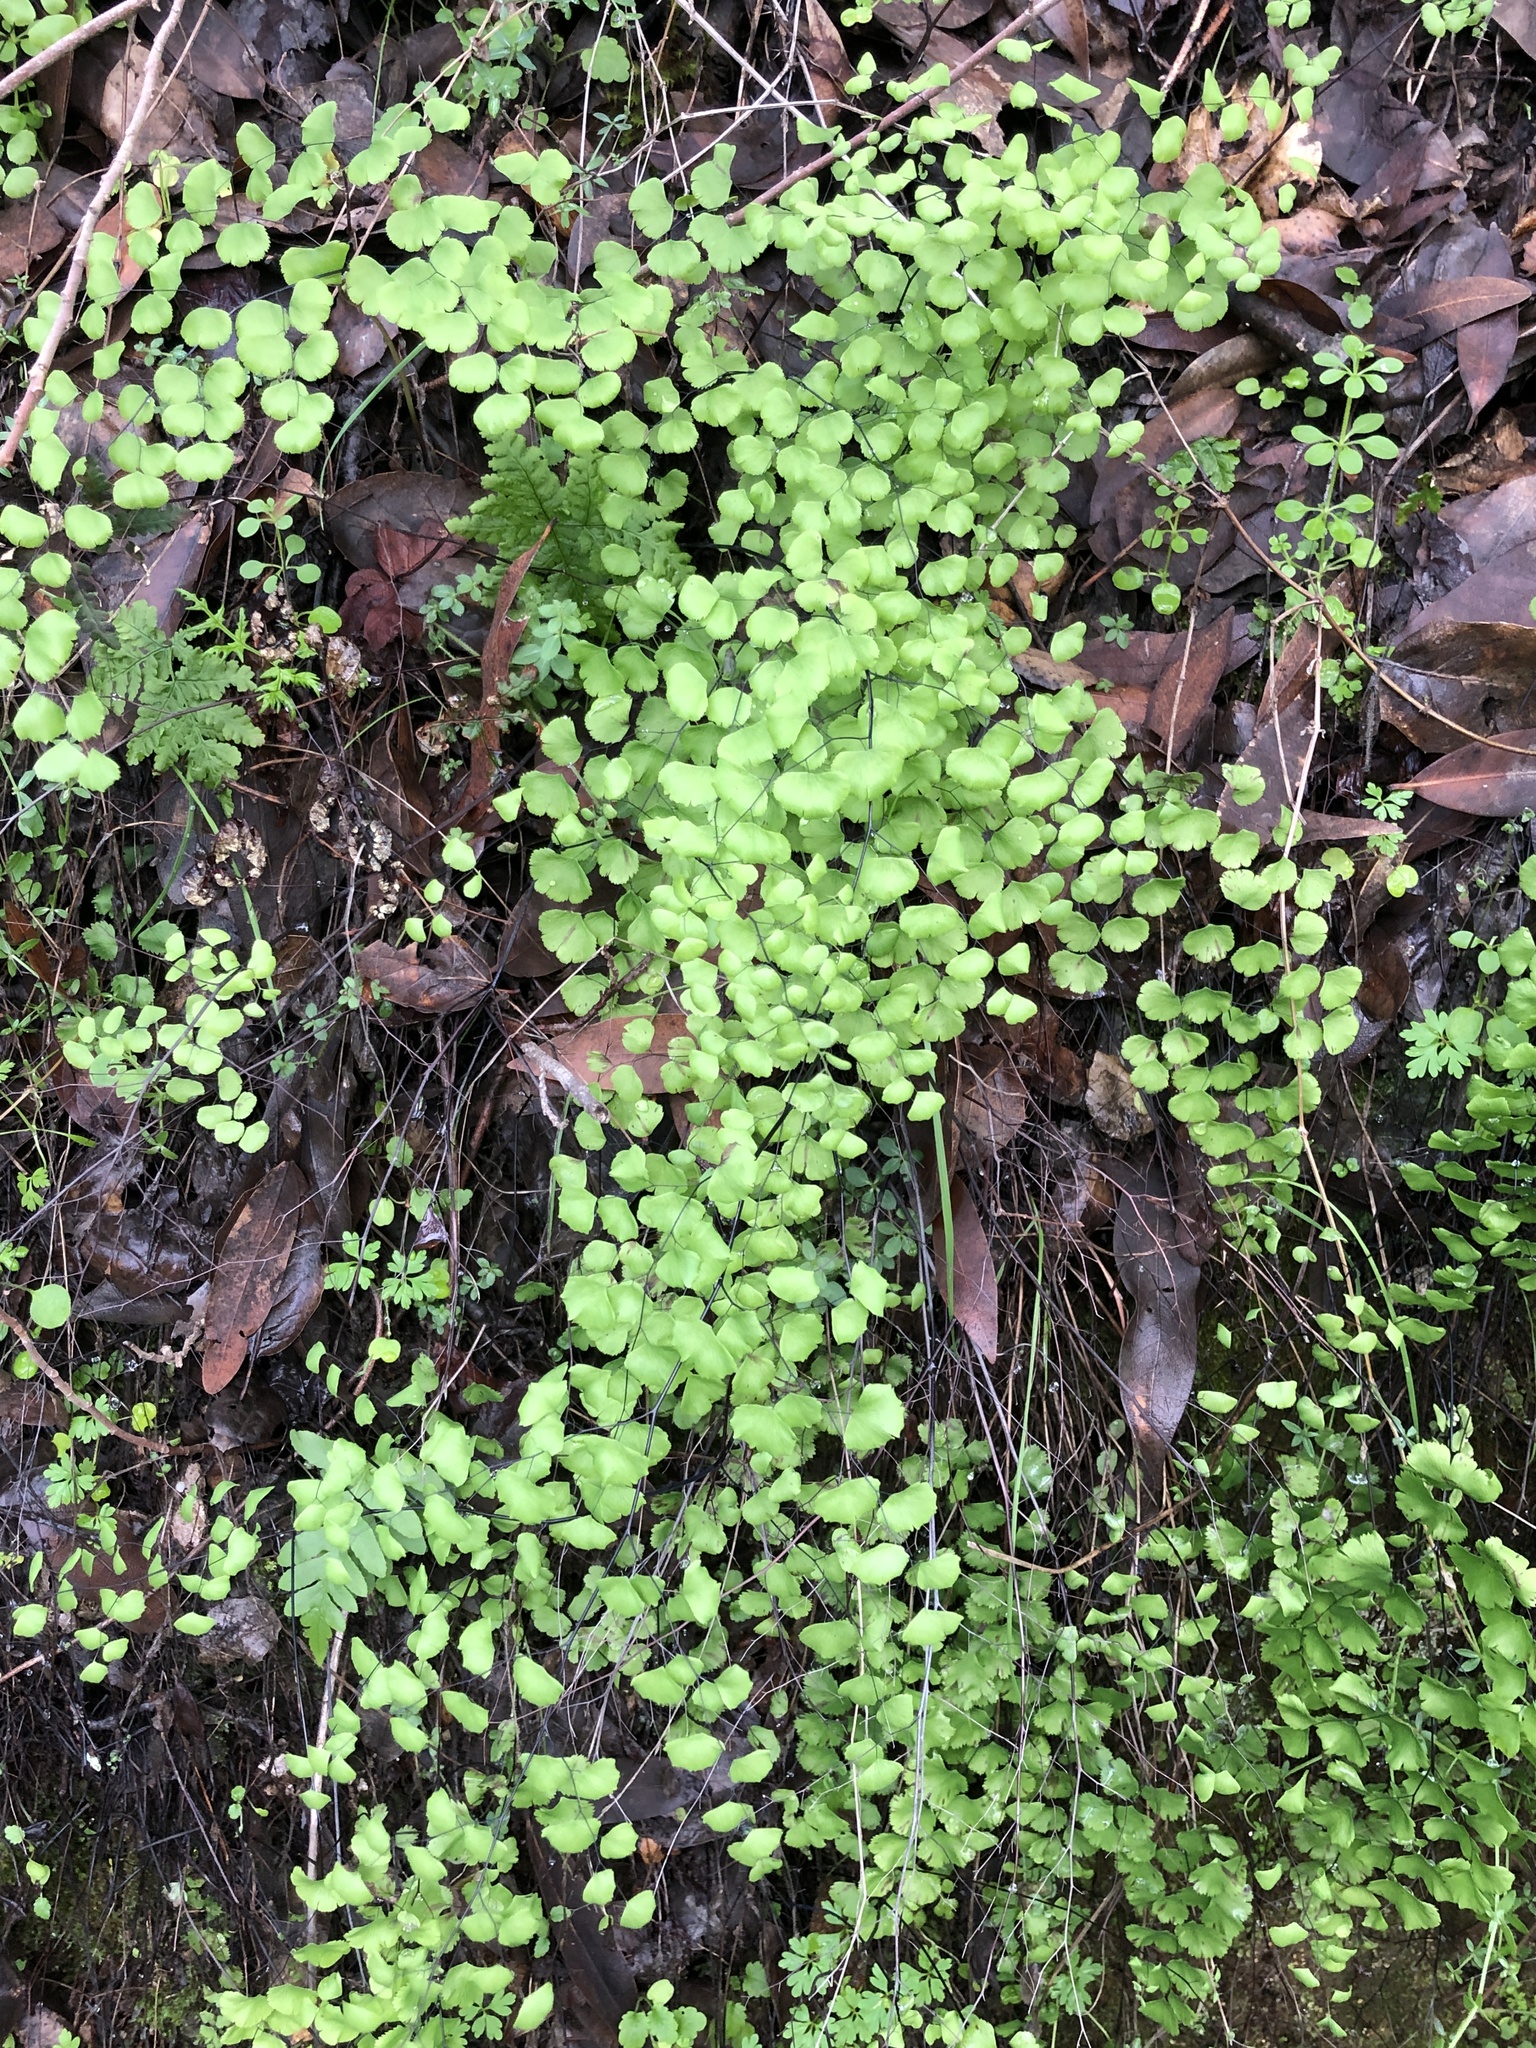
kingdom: Plantae
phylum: Tracheophyta
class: Polypodiopsida
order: Polypodiales
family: Pteridaceae
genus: Adiantum
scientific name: Adiantum jordanii
